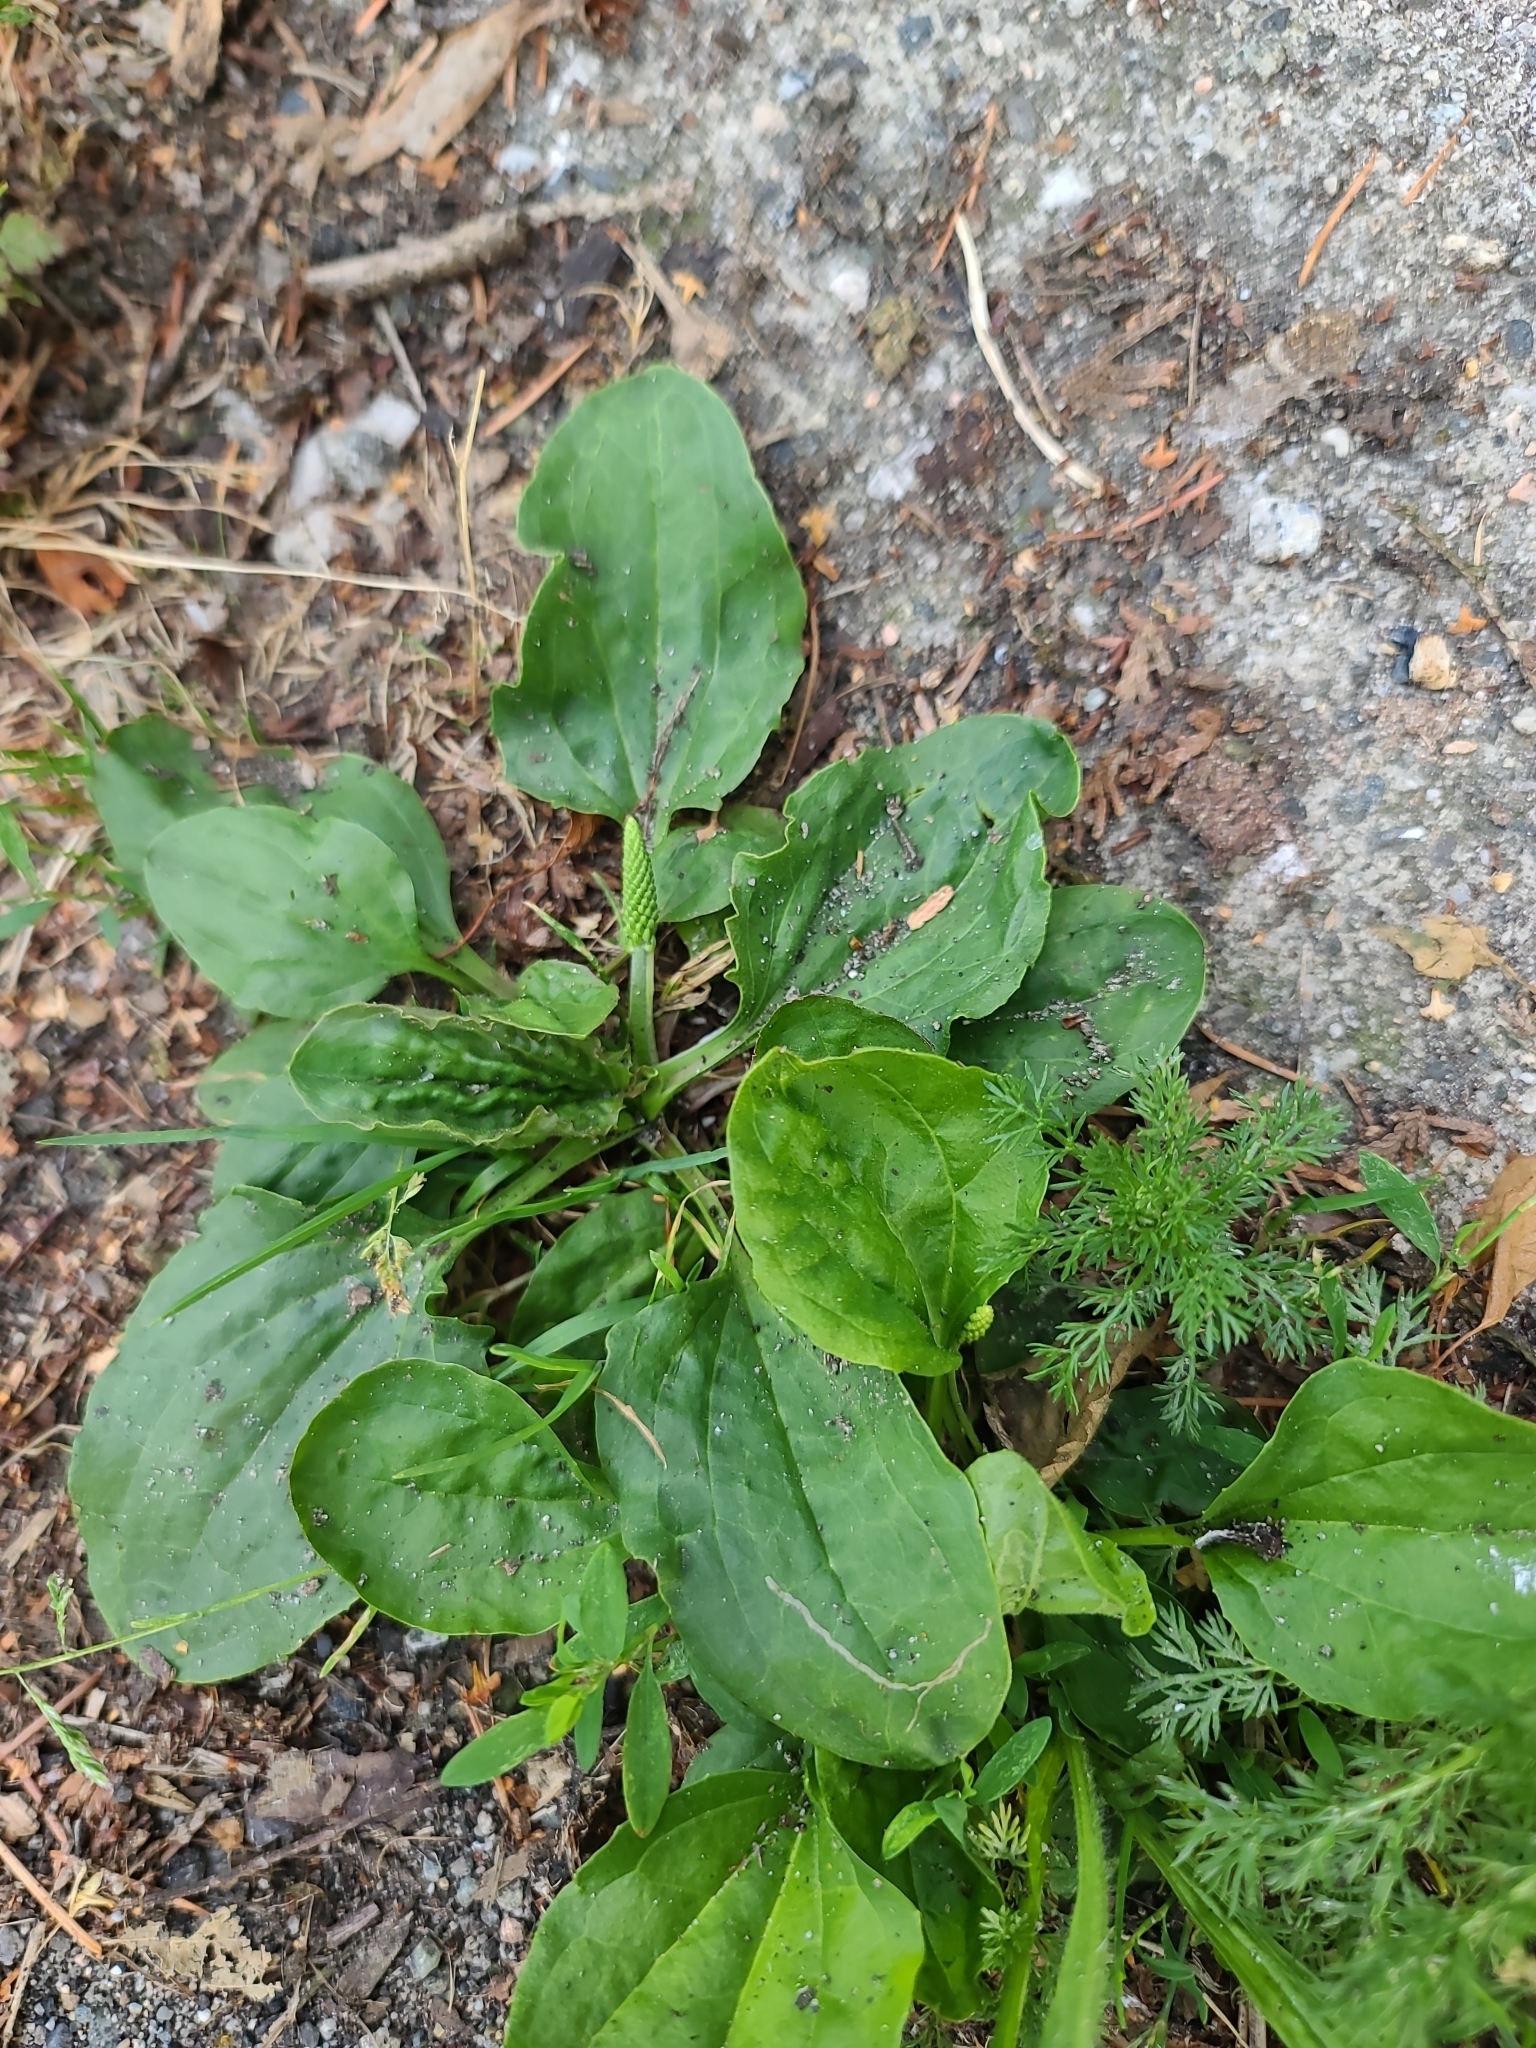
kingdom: Plantae
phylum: Tracheophyta
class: Magnoliopsida
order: Lamiales
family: Plantaginaceae
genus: Plantago
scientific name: Plantago major
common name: Common plantain
